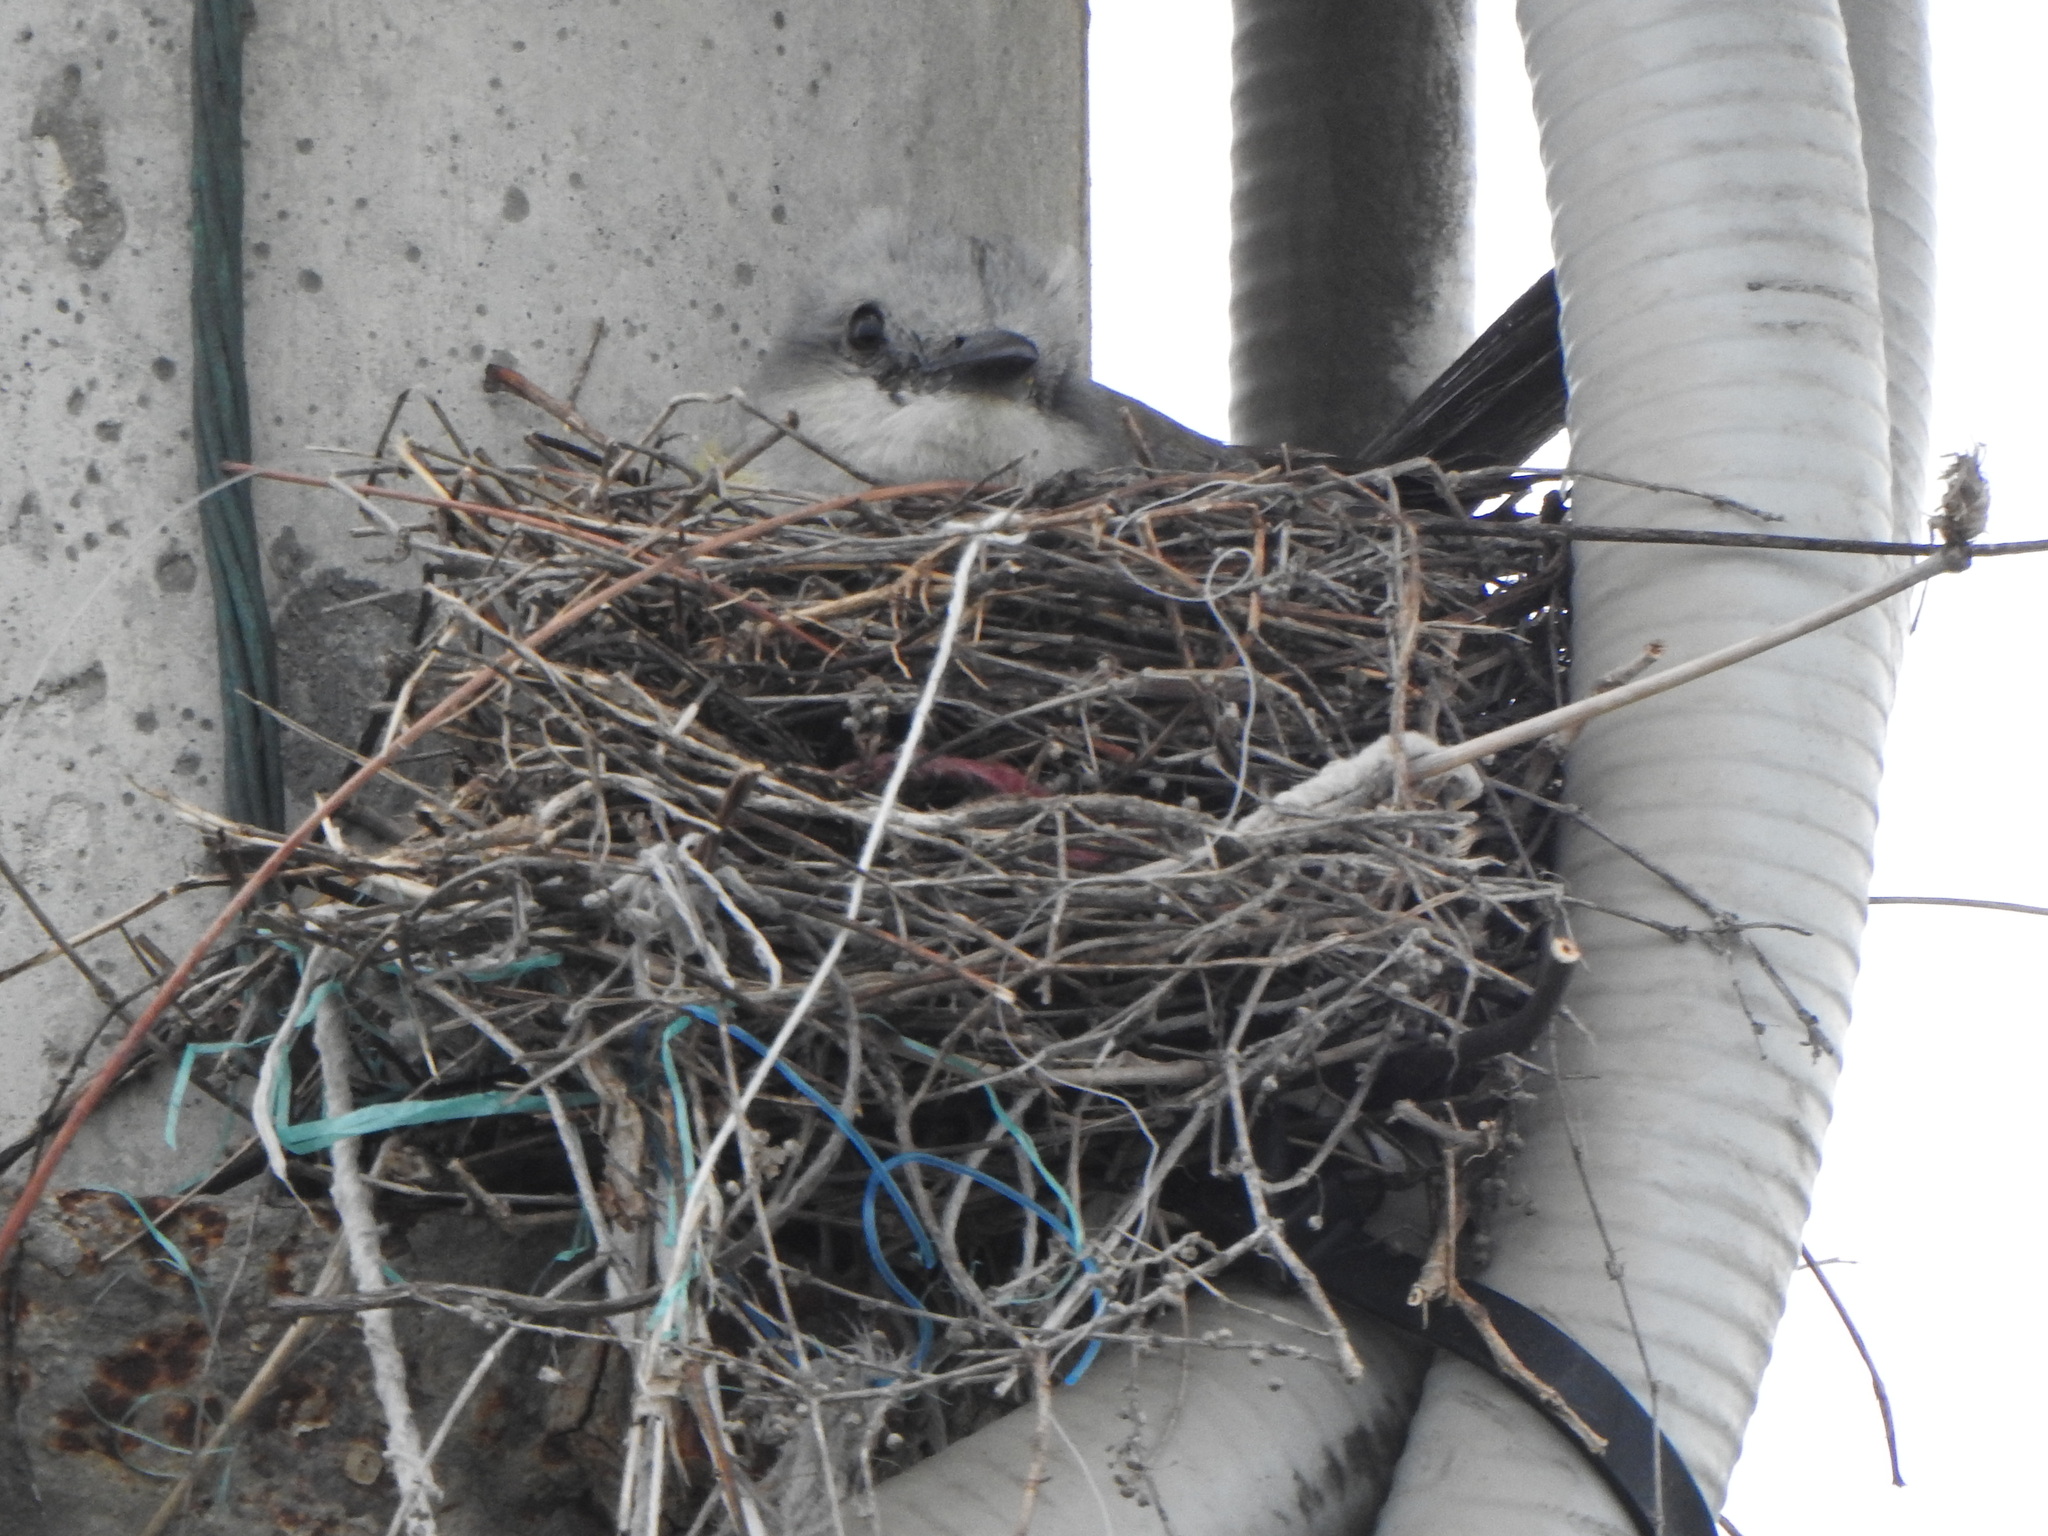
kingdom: Animalia
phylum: Chordata
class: Aves
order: Passeriformes
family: Tyrannidae
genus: Tyrannus
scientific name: Tyrannus melancholicus
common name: Tropical kingbird
